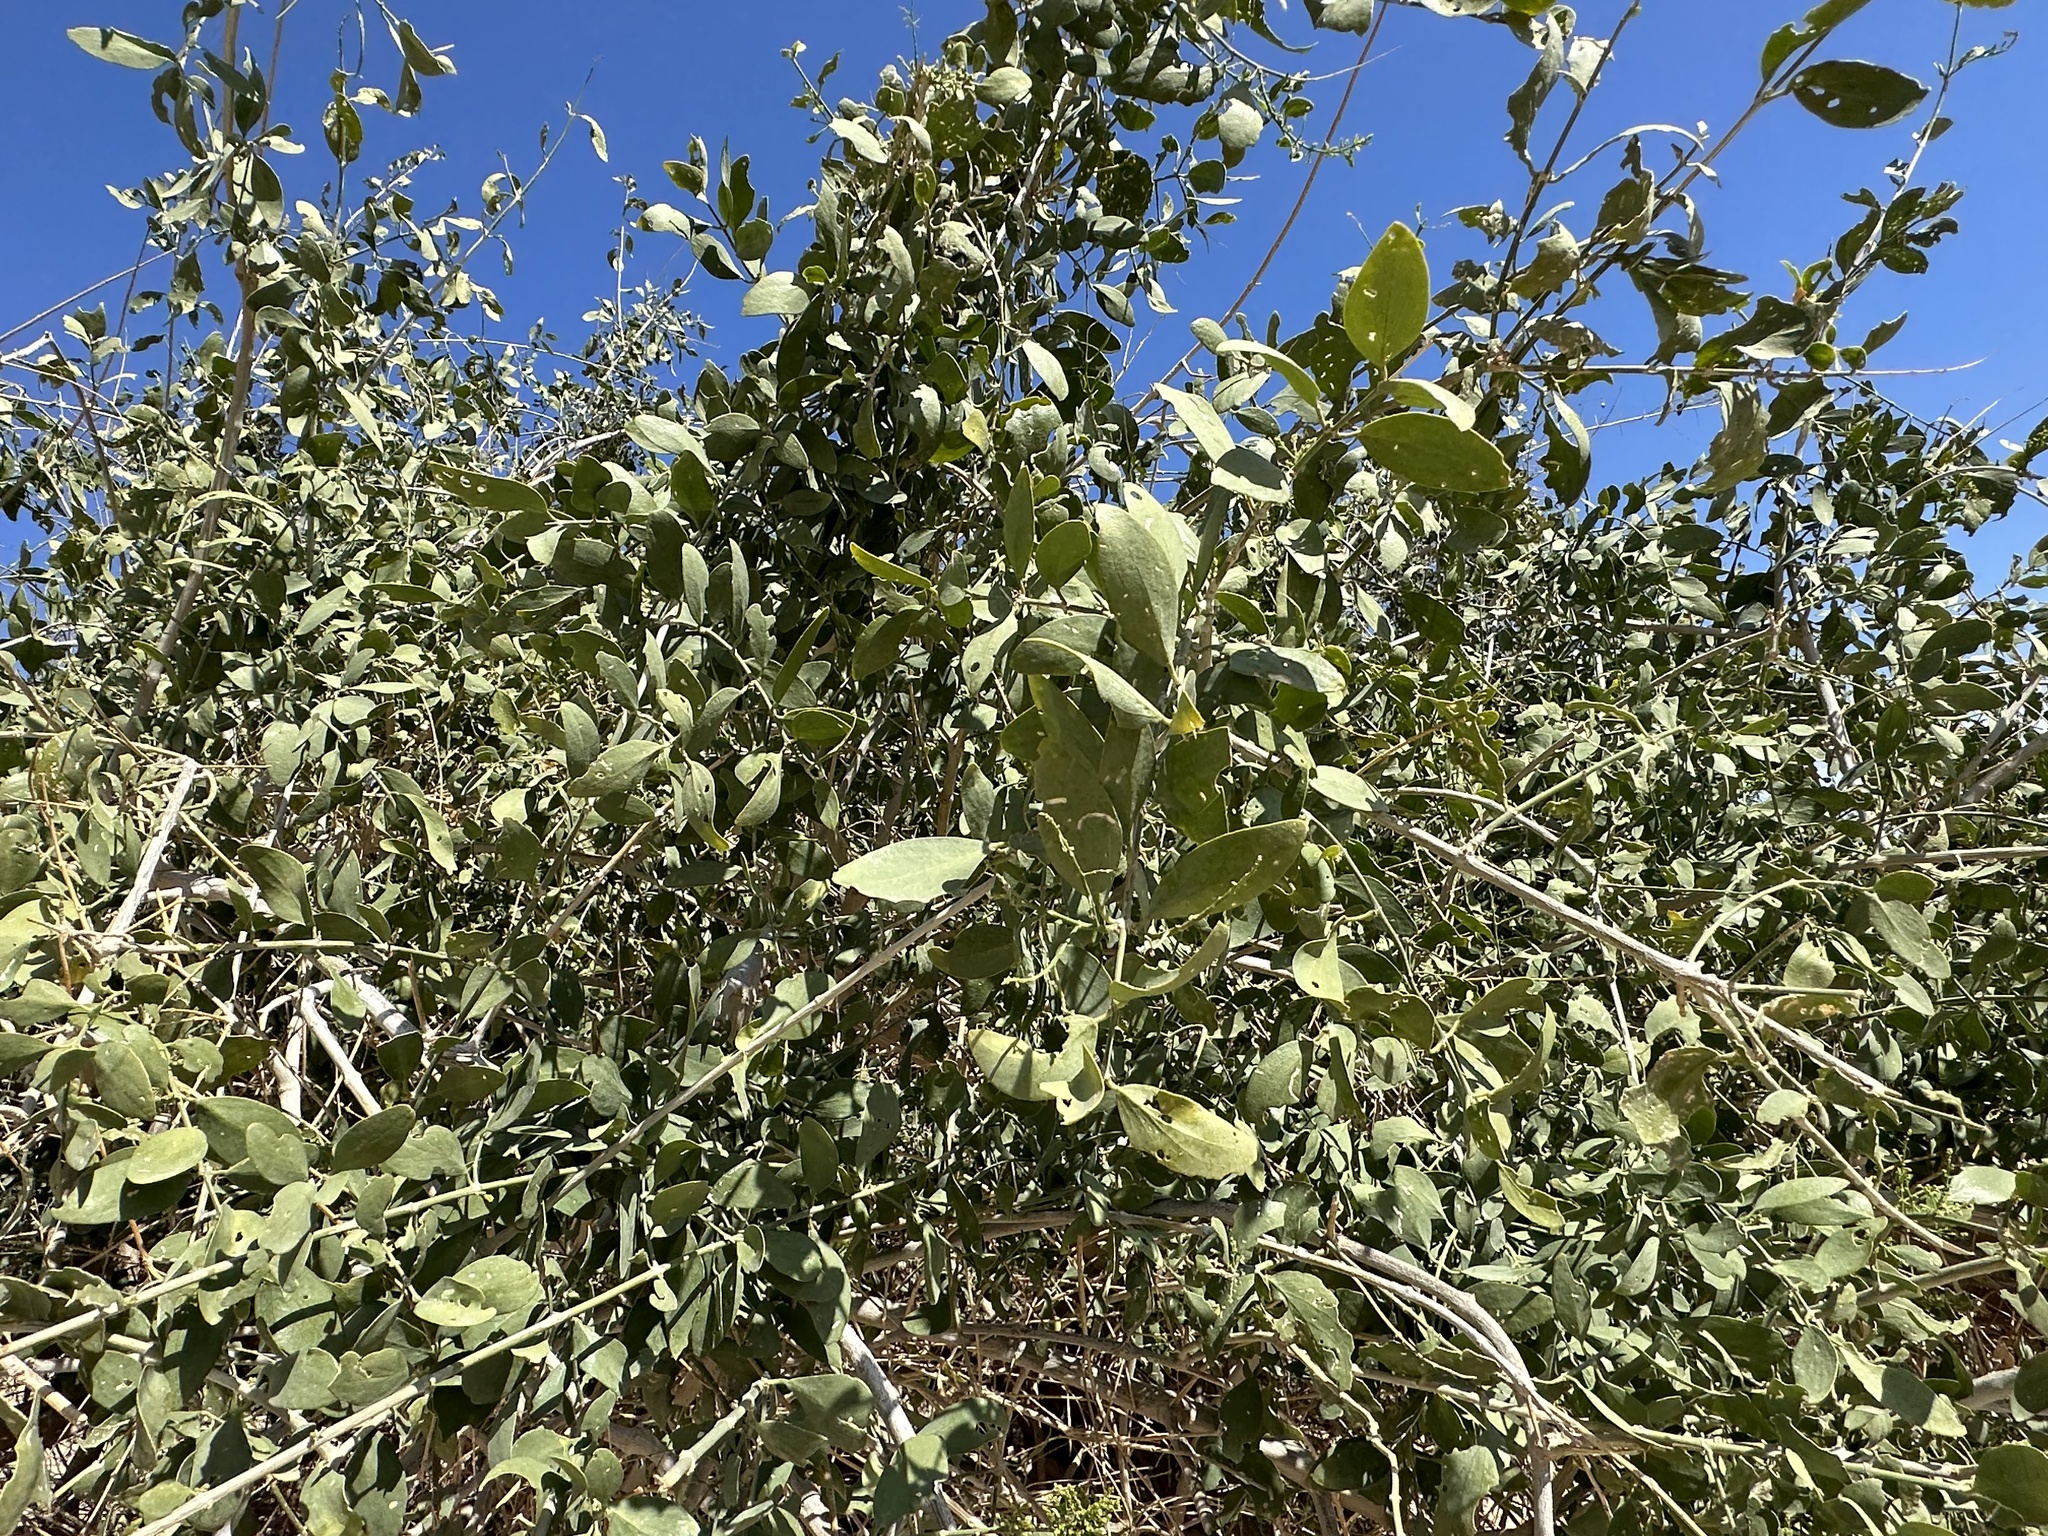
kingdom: Plantae
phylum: Tracheophyta
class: Magnoliopsida
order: Brassicales
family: Salvadoraceae
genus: Salvadora
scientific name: Salvadora persica
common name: Toothbrushtree
